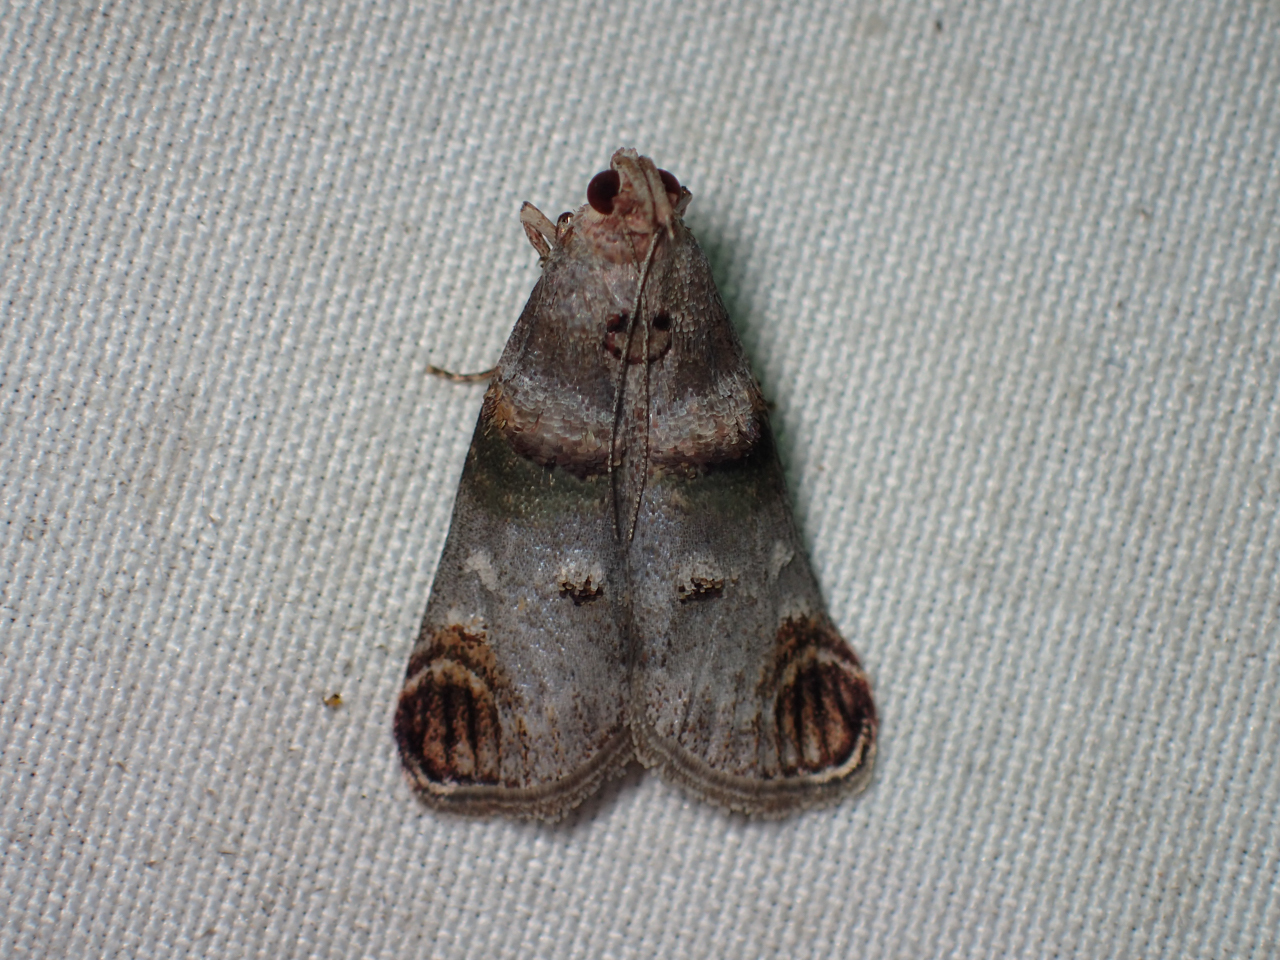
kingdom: Animalia
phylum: Arthropoda
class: Insecta
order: Lepidoptera
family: Pyralidae
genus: Oneida
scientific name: Oneida lunulalis
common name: Orange-tufted oneida moth
